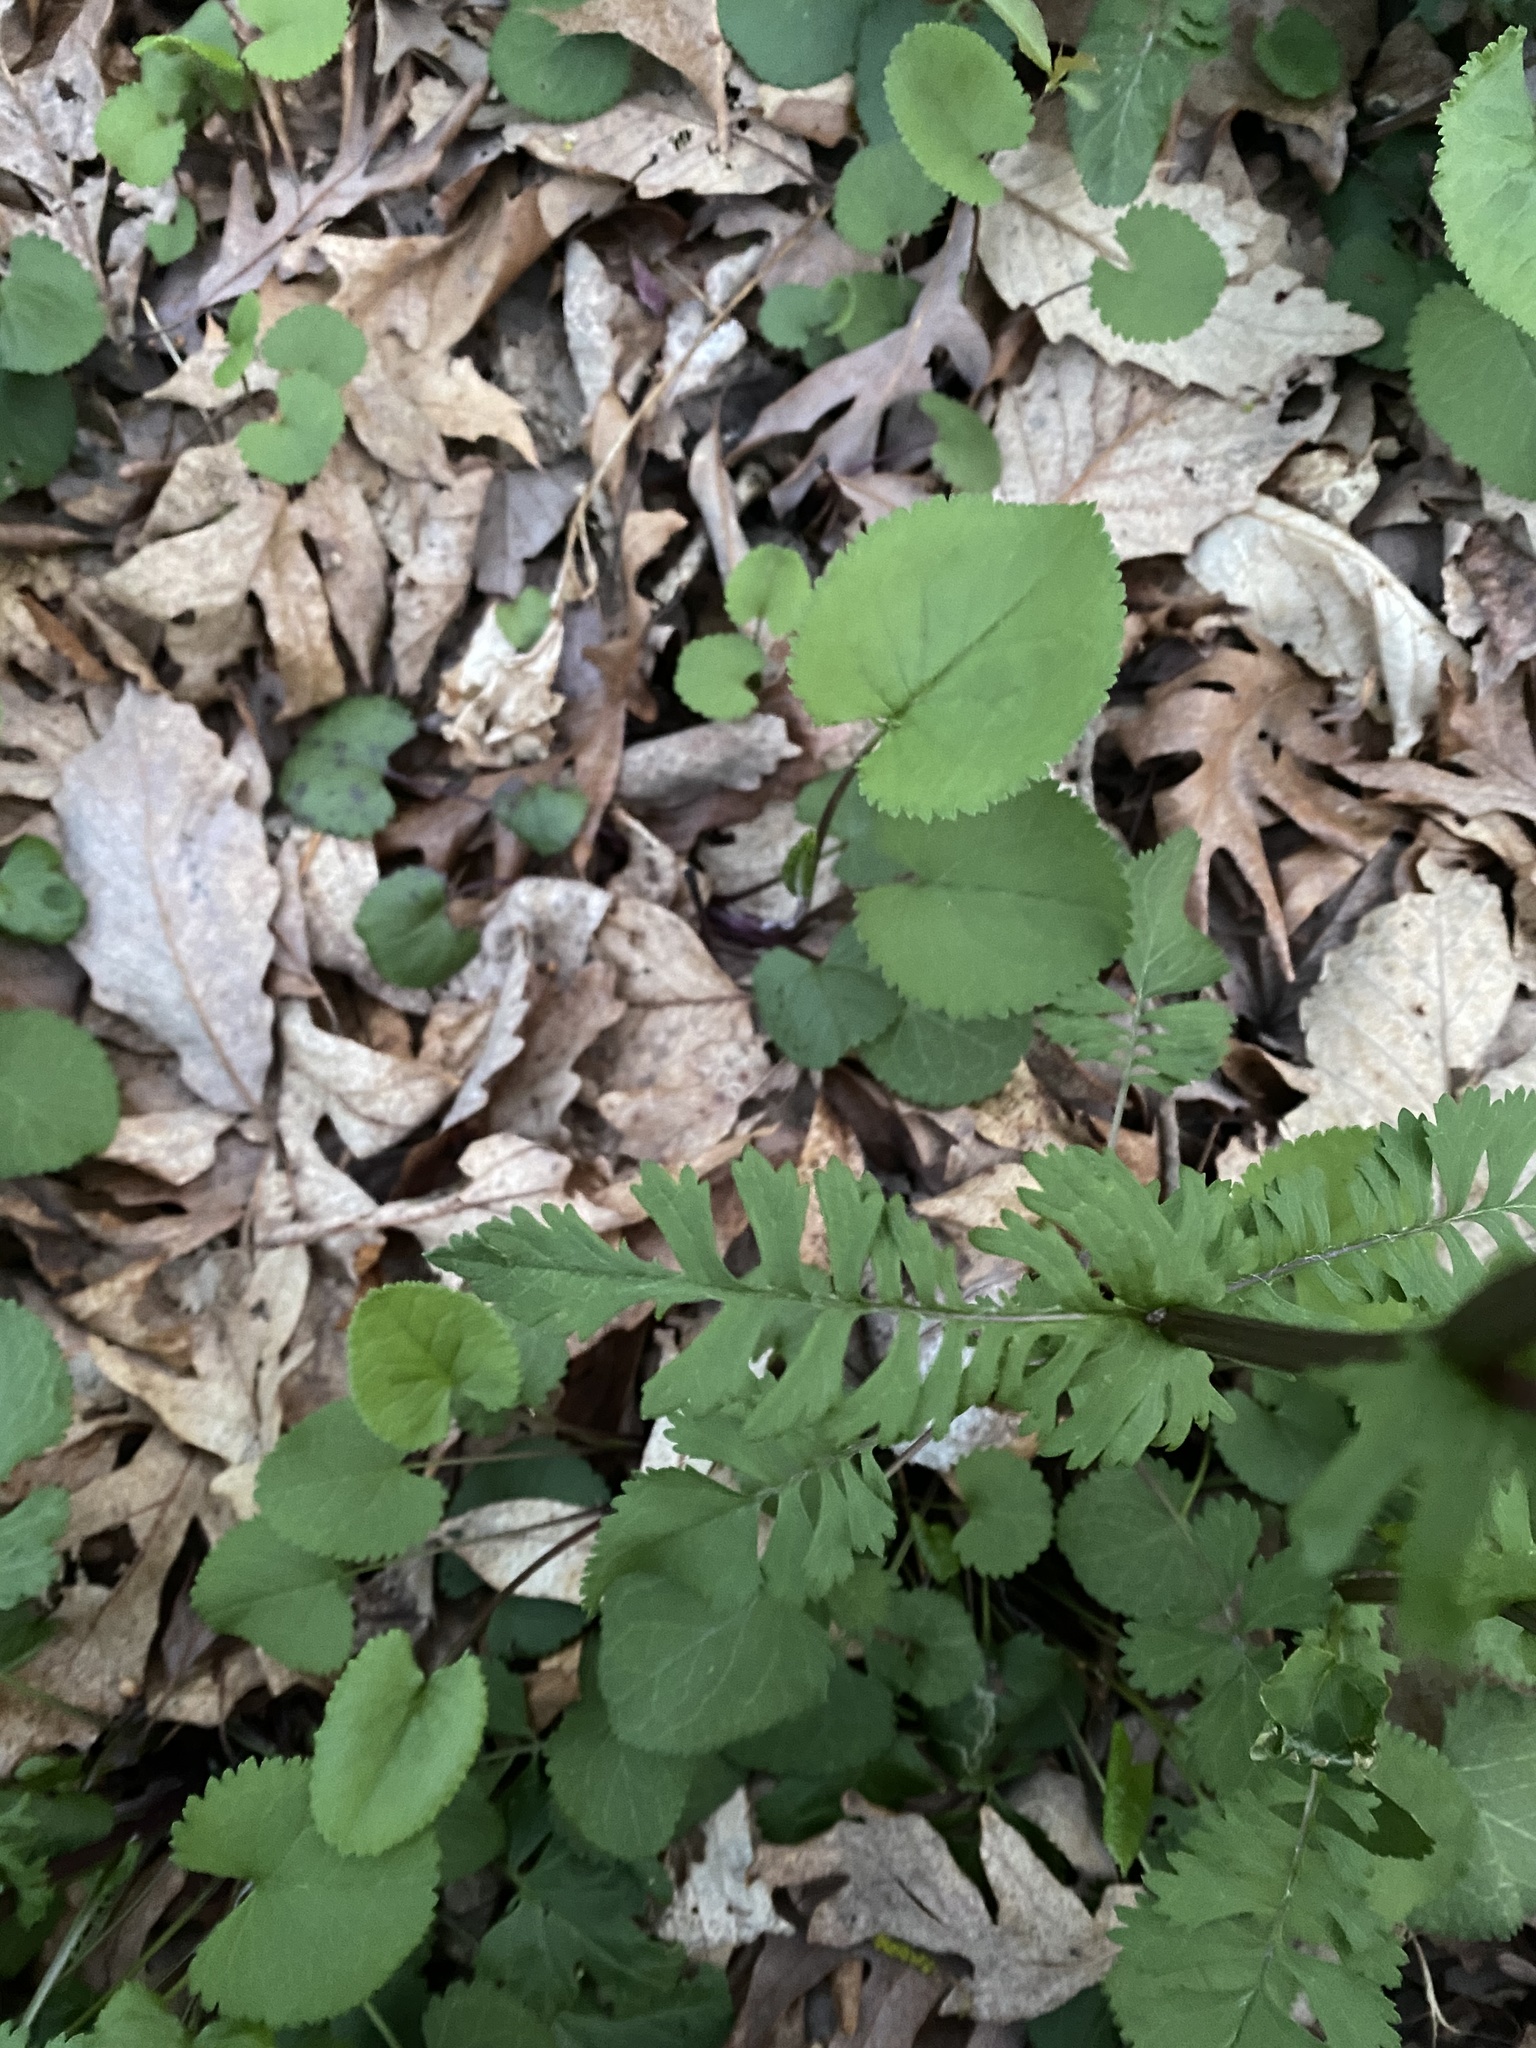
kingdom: Plantae
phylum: Tracheophyta
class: Magnoliopsida
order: Asterales
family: Asteraceae
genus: Packera
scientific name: Packera aurea
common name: Golden groundsel
